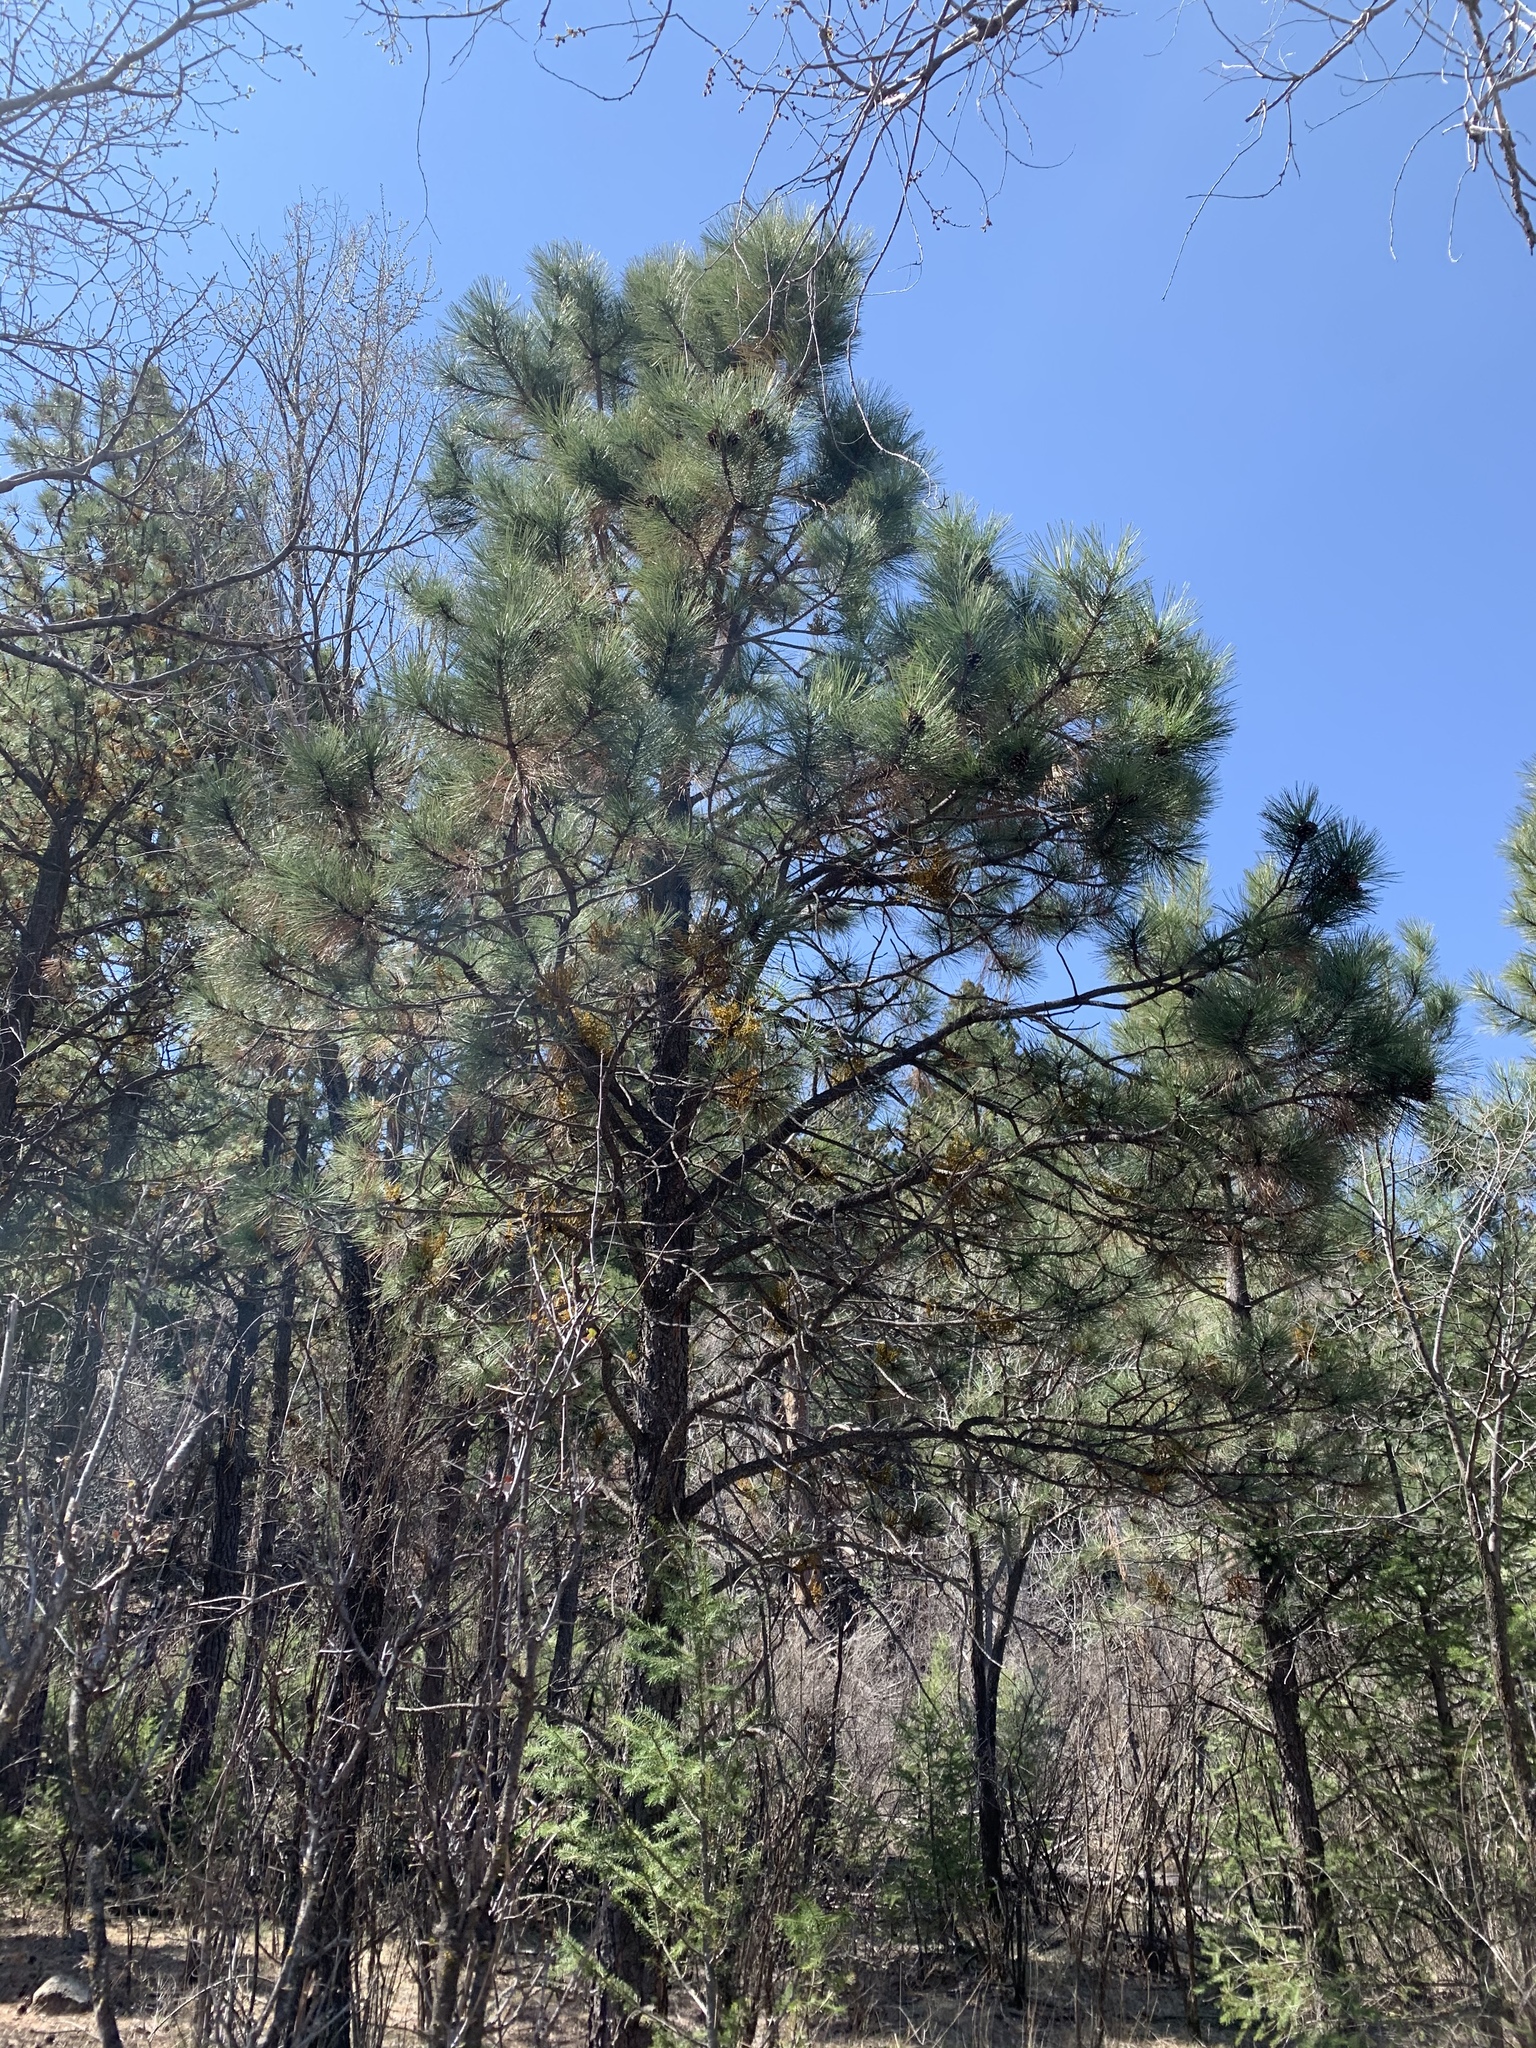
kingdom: Plantae
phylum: Tracheophyta
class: Pinopsida
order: Pinales
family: Pinaceae
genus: Pinus
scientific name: Pinus ponderosa
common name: Western yellow-pine
